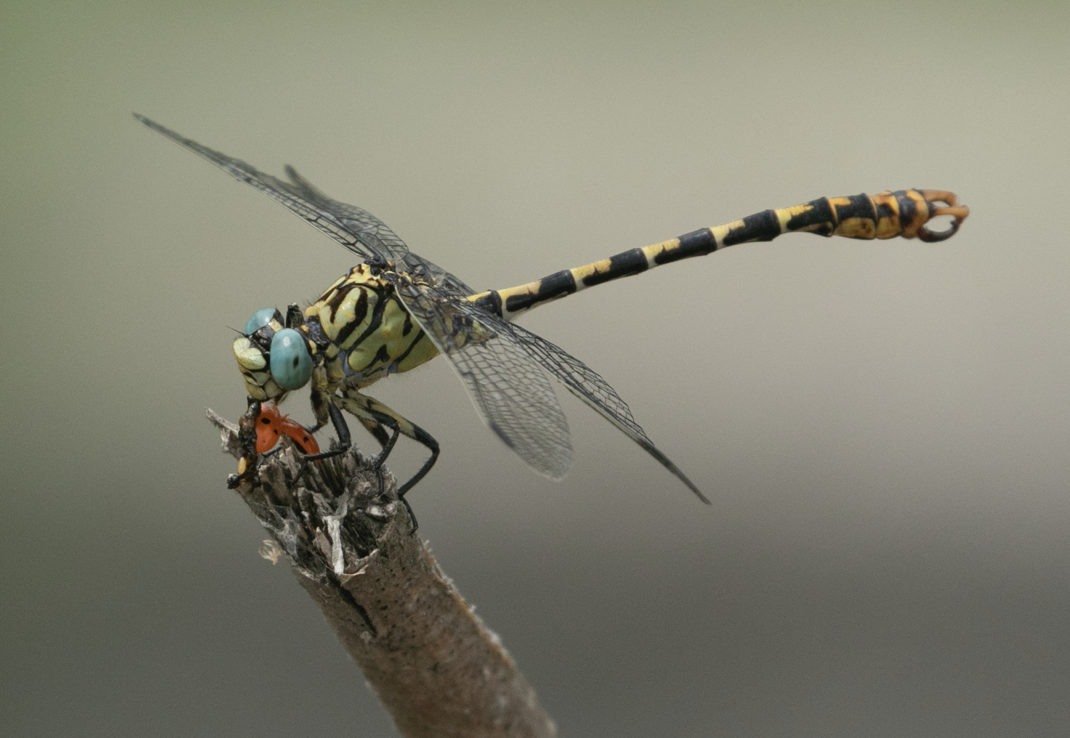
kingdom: Animalia
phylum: Arthropoda
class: Insecta
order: Odonata
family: Gomphidae
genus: Onychogomphus
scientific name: Onychogomphus forcipatus
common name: Small pincertail
